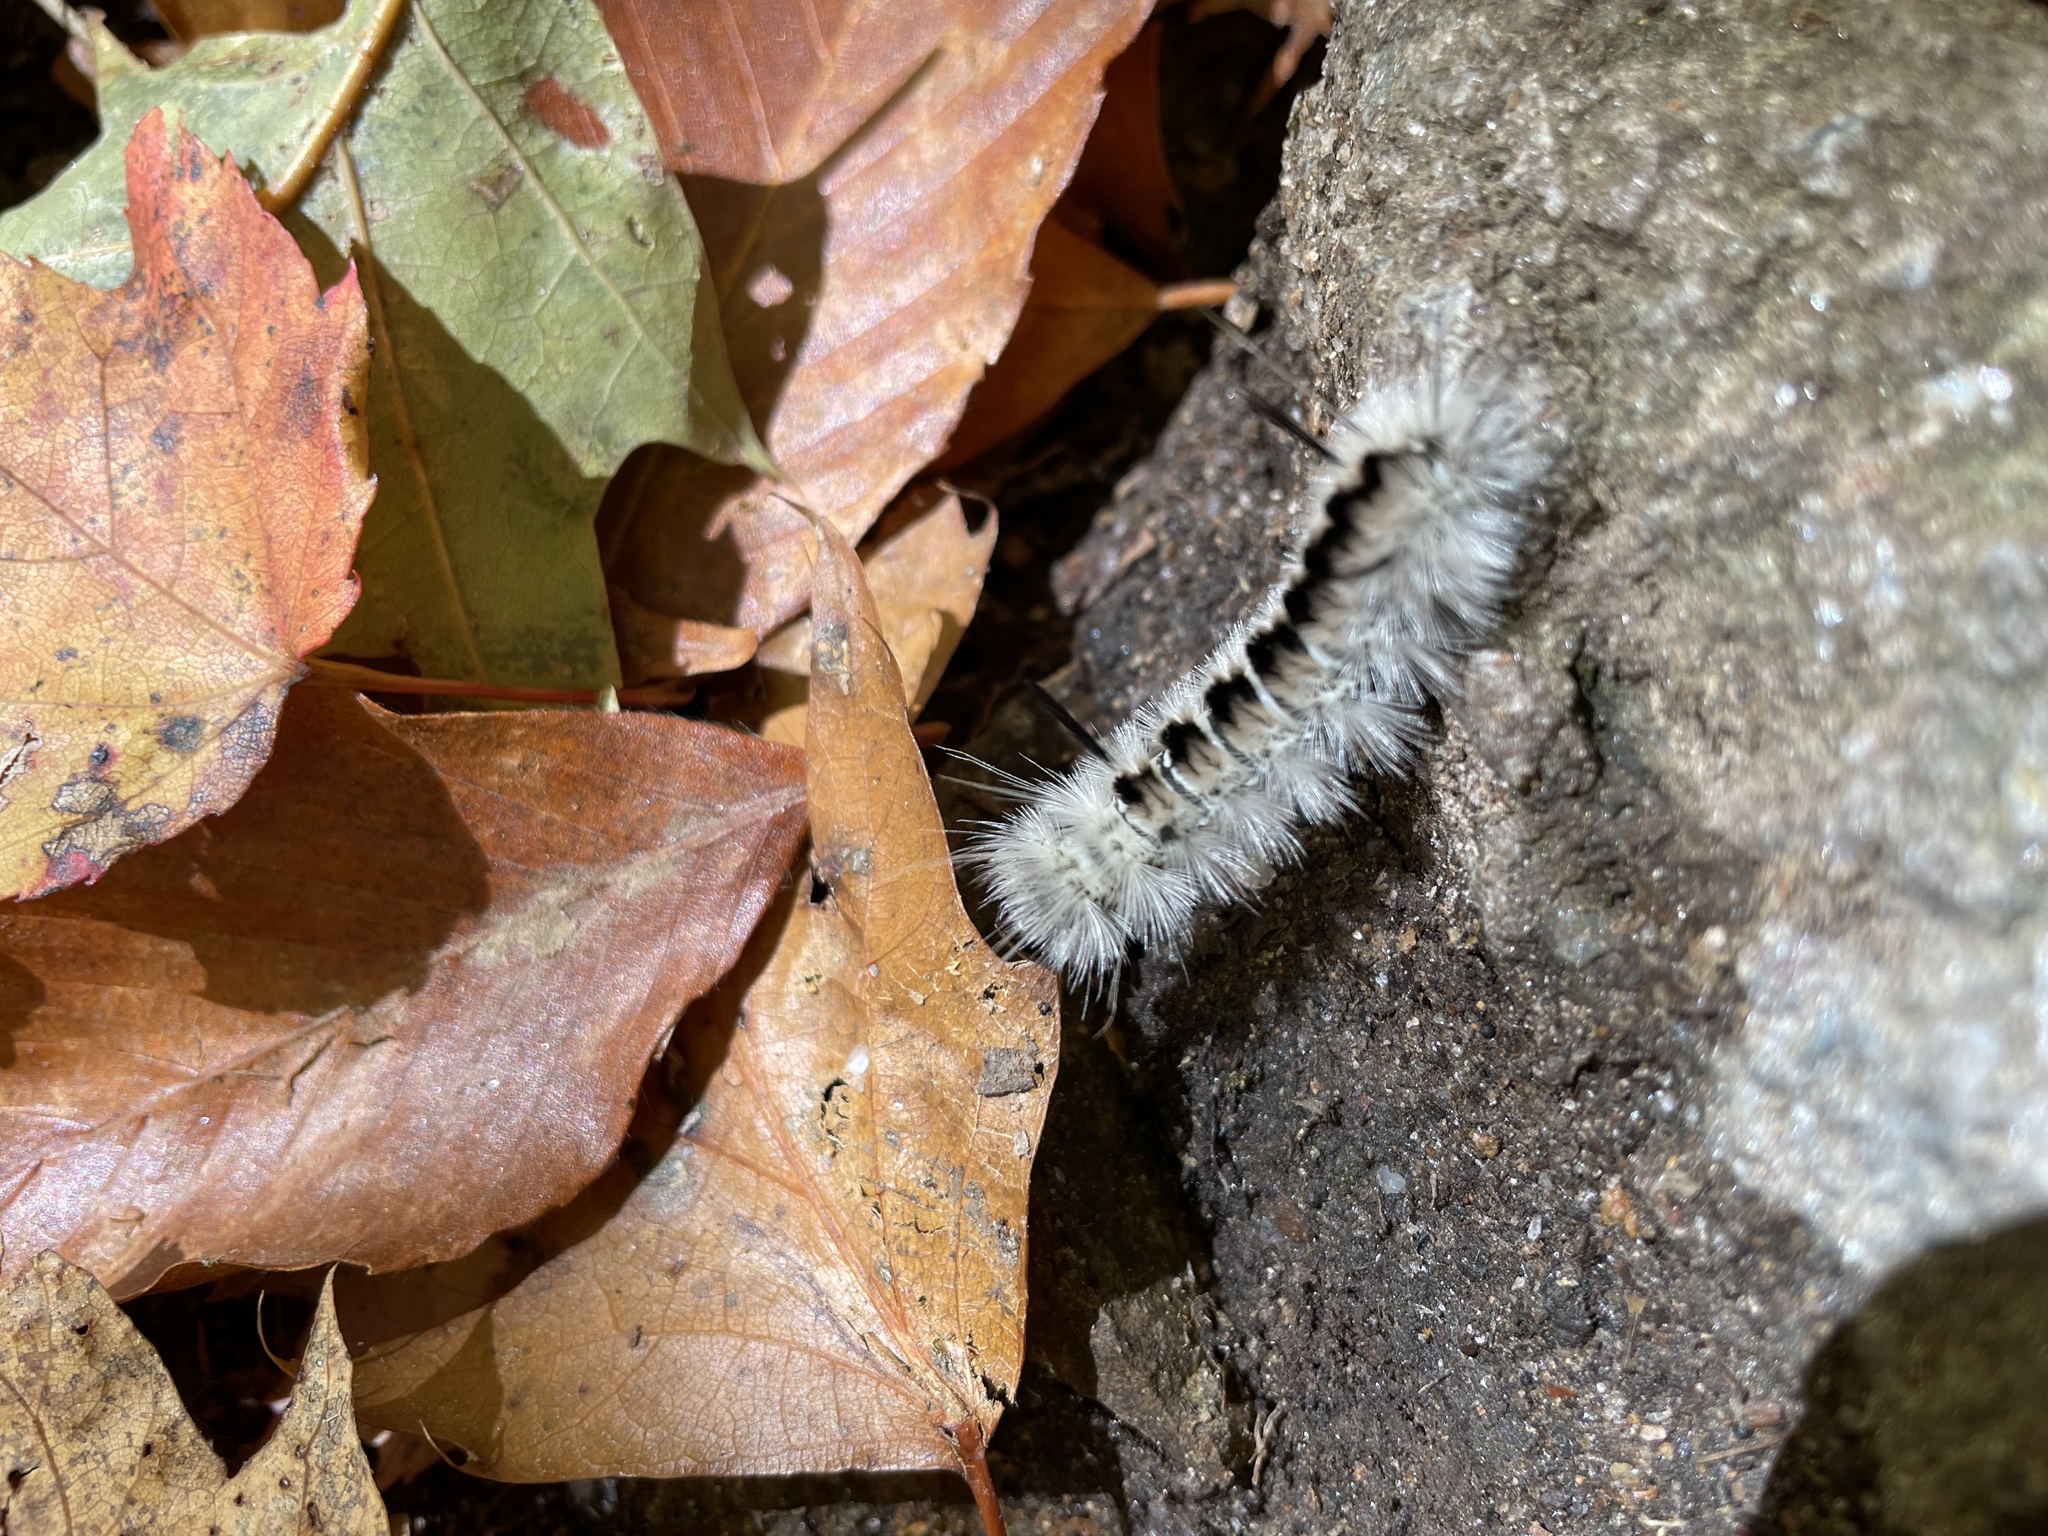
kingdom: Animalia
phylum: Arthropoda
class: Insecta
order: Lepidoptera
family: Erebidae
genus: Lophocampa
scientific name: Lophocampa caryae
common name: Hickory tussock moth
